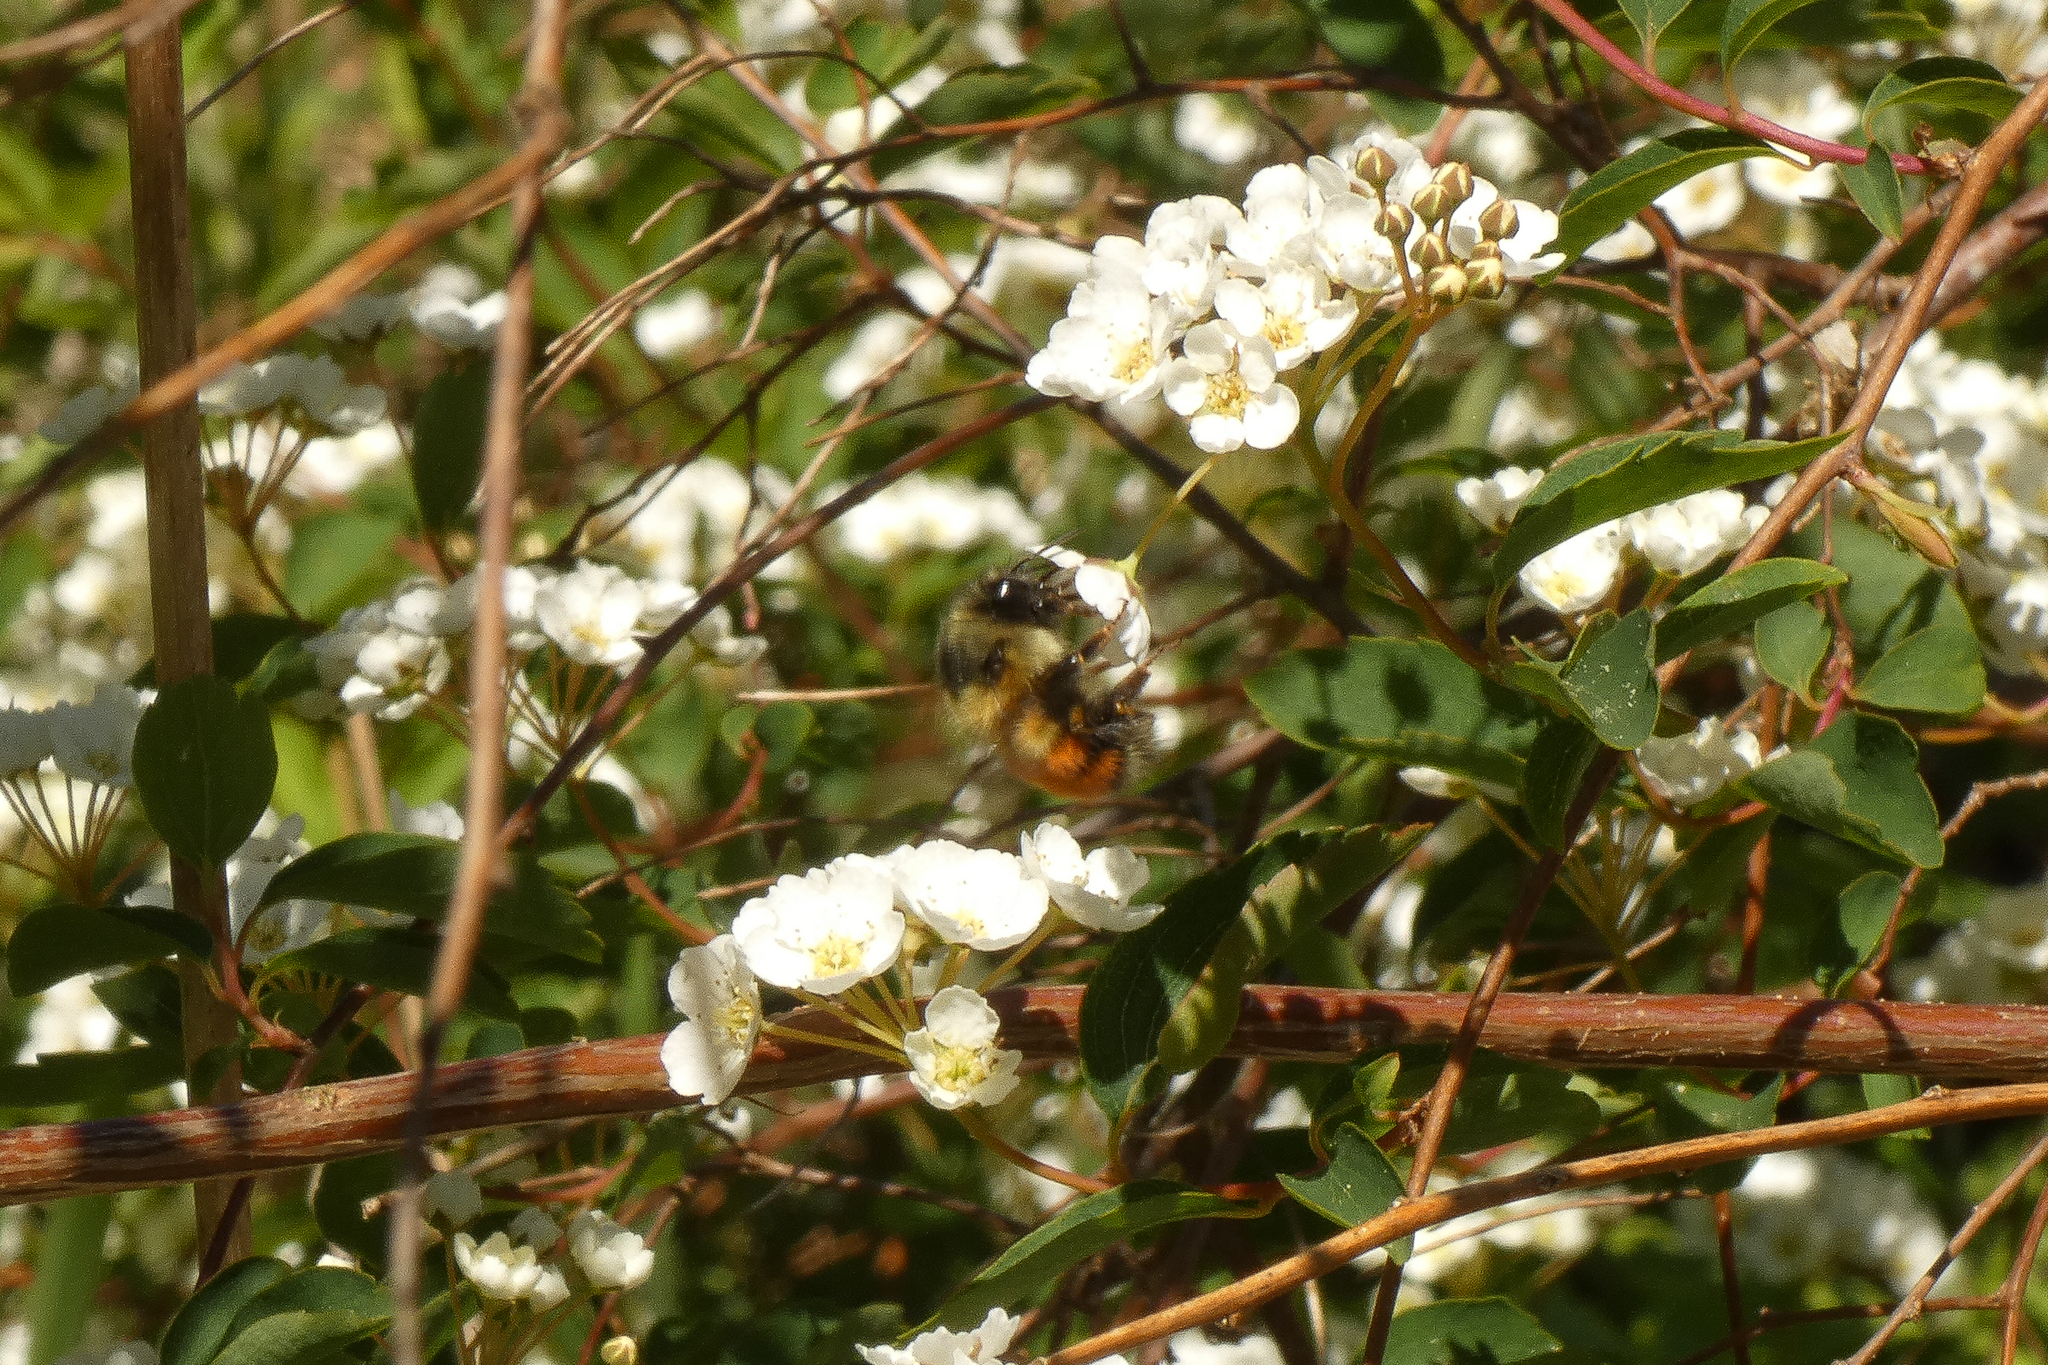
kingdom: Animalia
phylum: Arthropoda
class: Insecta
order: Hymenoptera
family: Apidae
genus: Bombus
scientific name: Bombus melanopygus
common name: Black tail bumble bee
